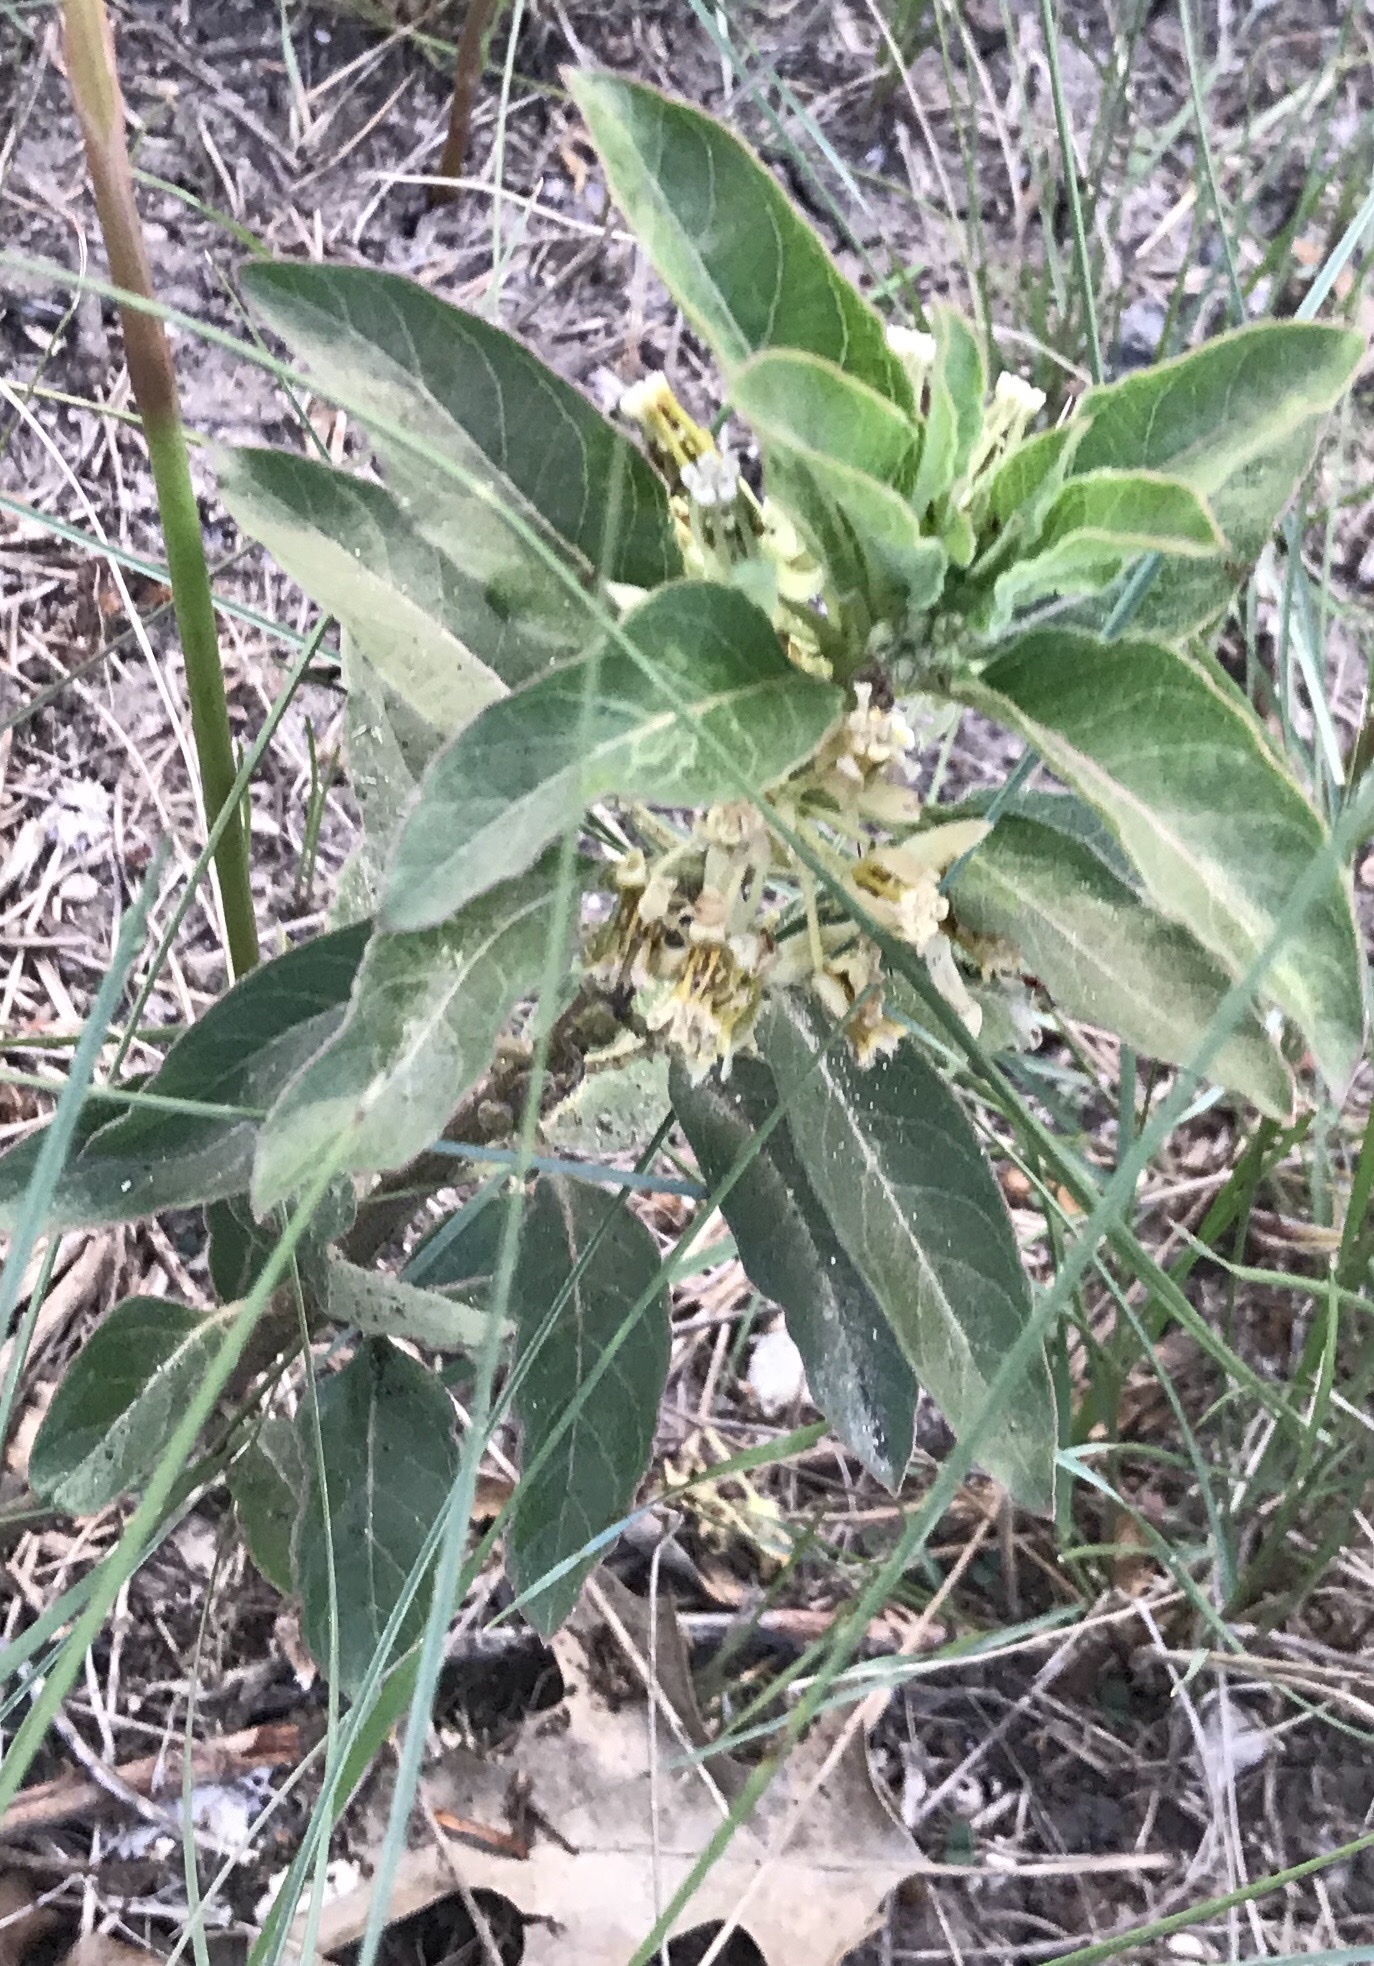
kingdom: Plantae
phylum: Tracheophyta
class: Magnoliopsida
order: Gentianales
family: Apocynaceae
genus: Asclepias
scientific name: Asclepias oenotheroides
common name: Zizotes milkweed
